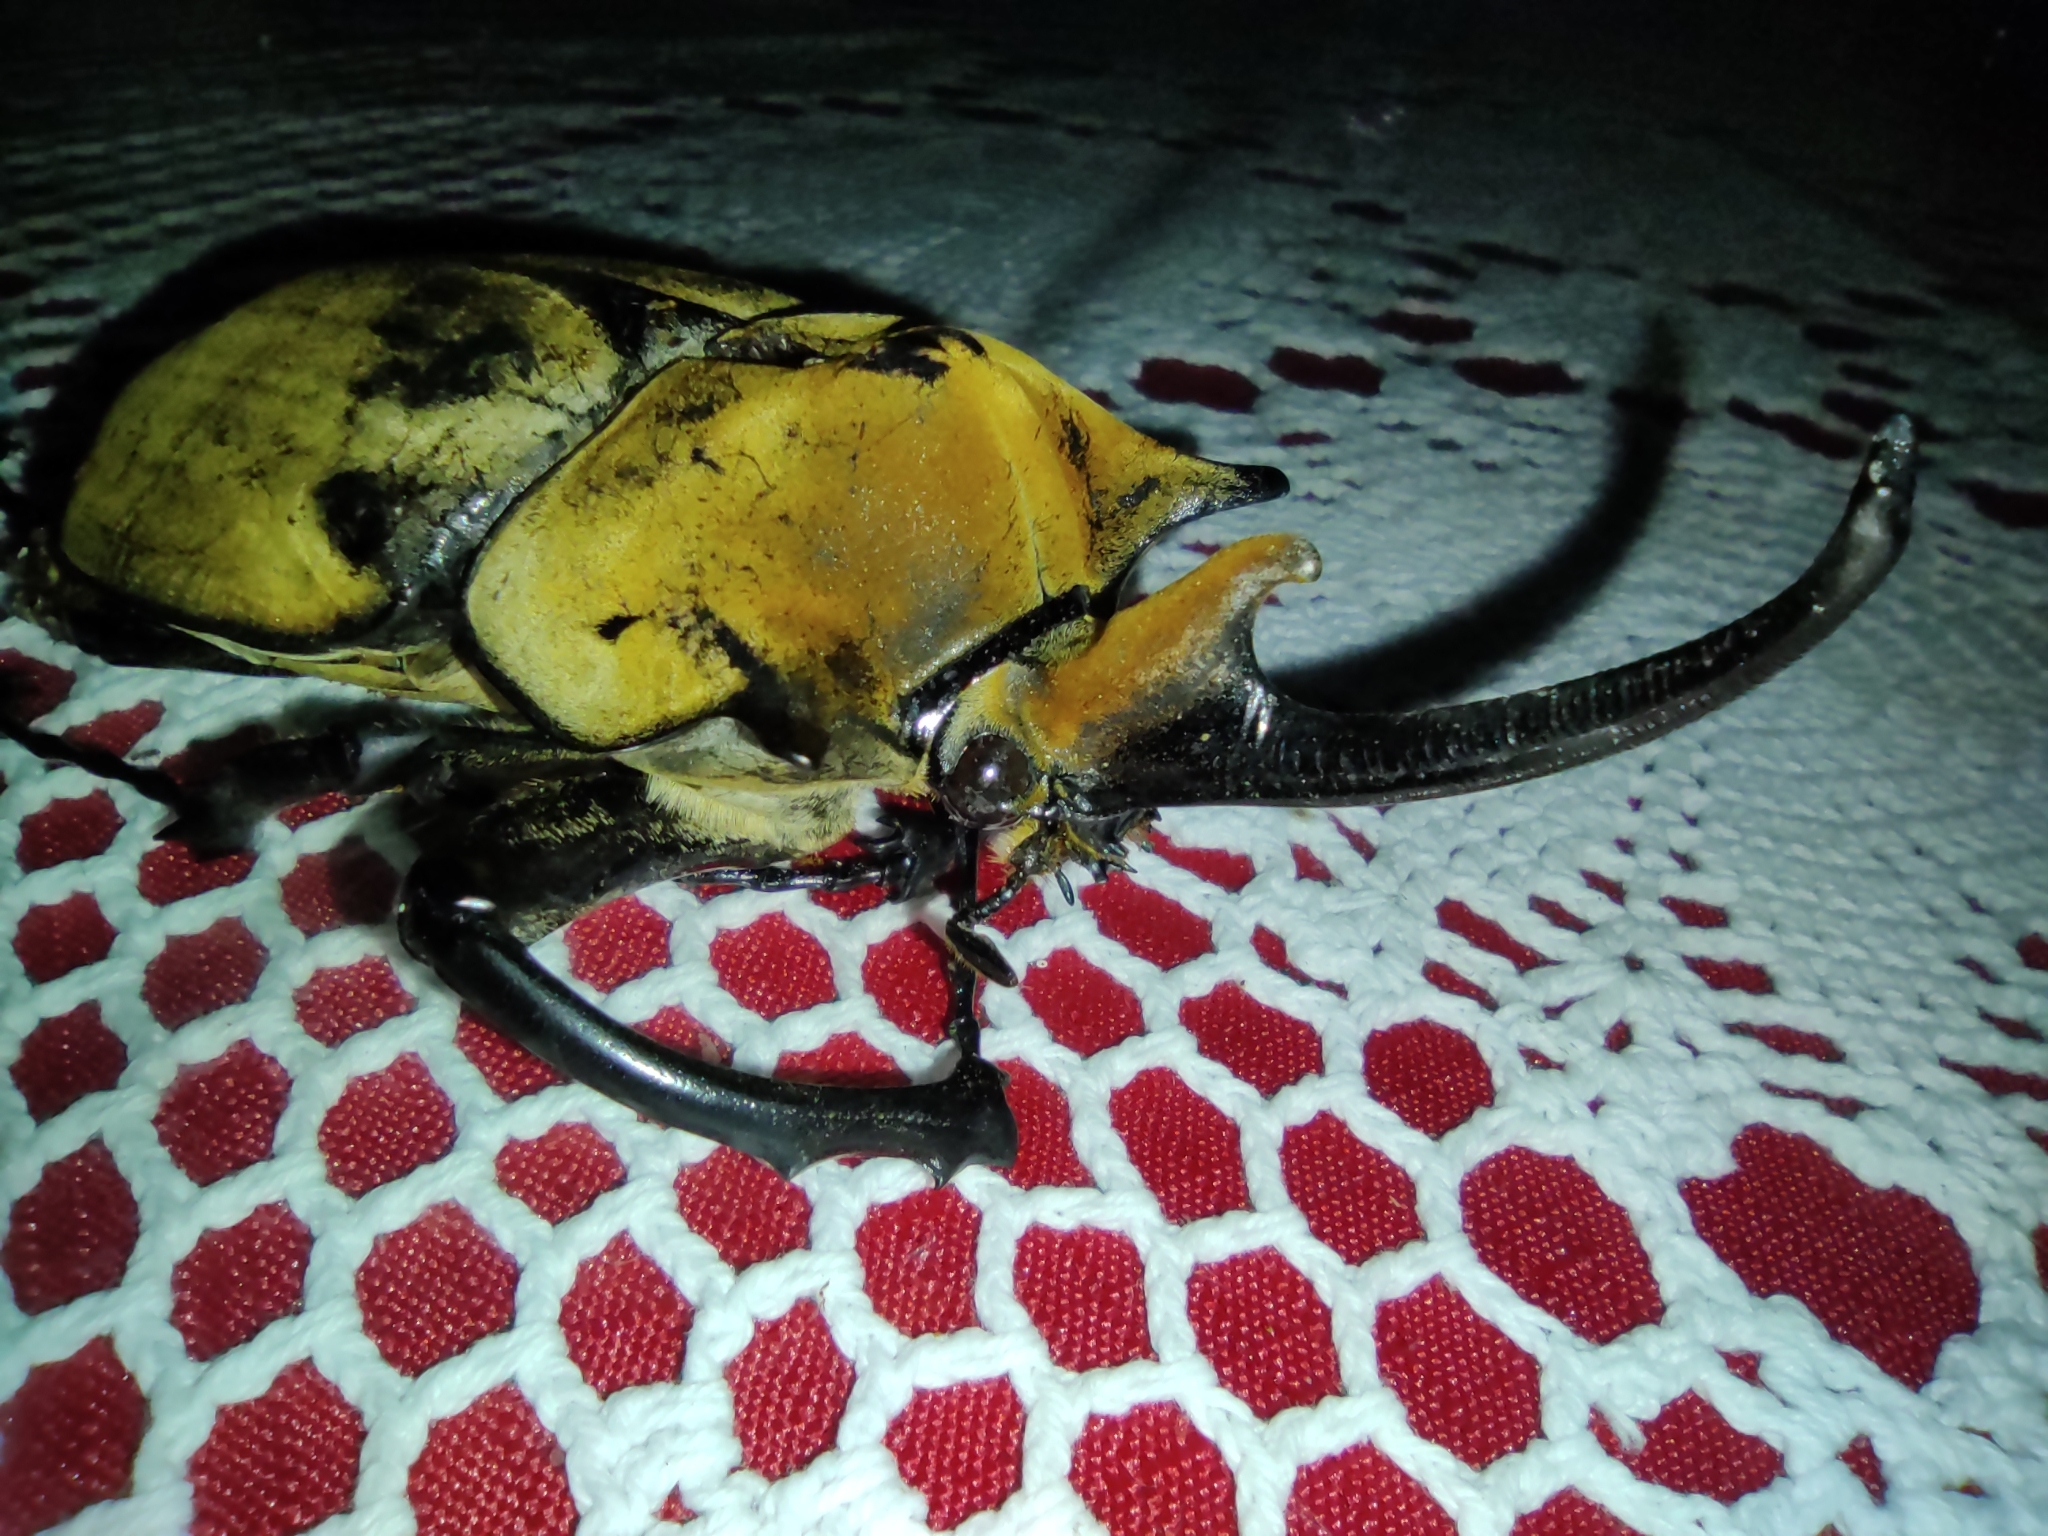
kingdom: Animalia
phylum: Arthropoda
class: Insecta
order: Coleoptera
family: Scarabaeidae
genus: Megasoma
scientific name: Megasoma elephas
